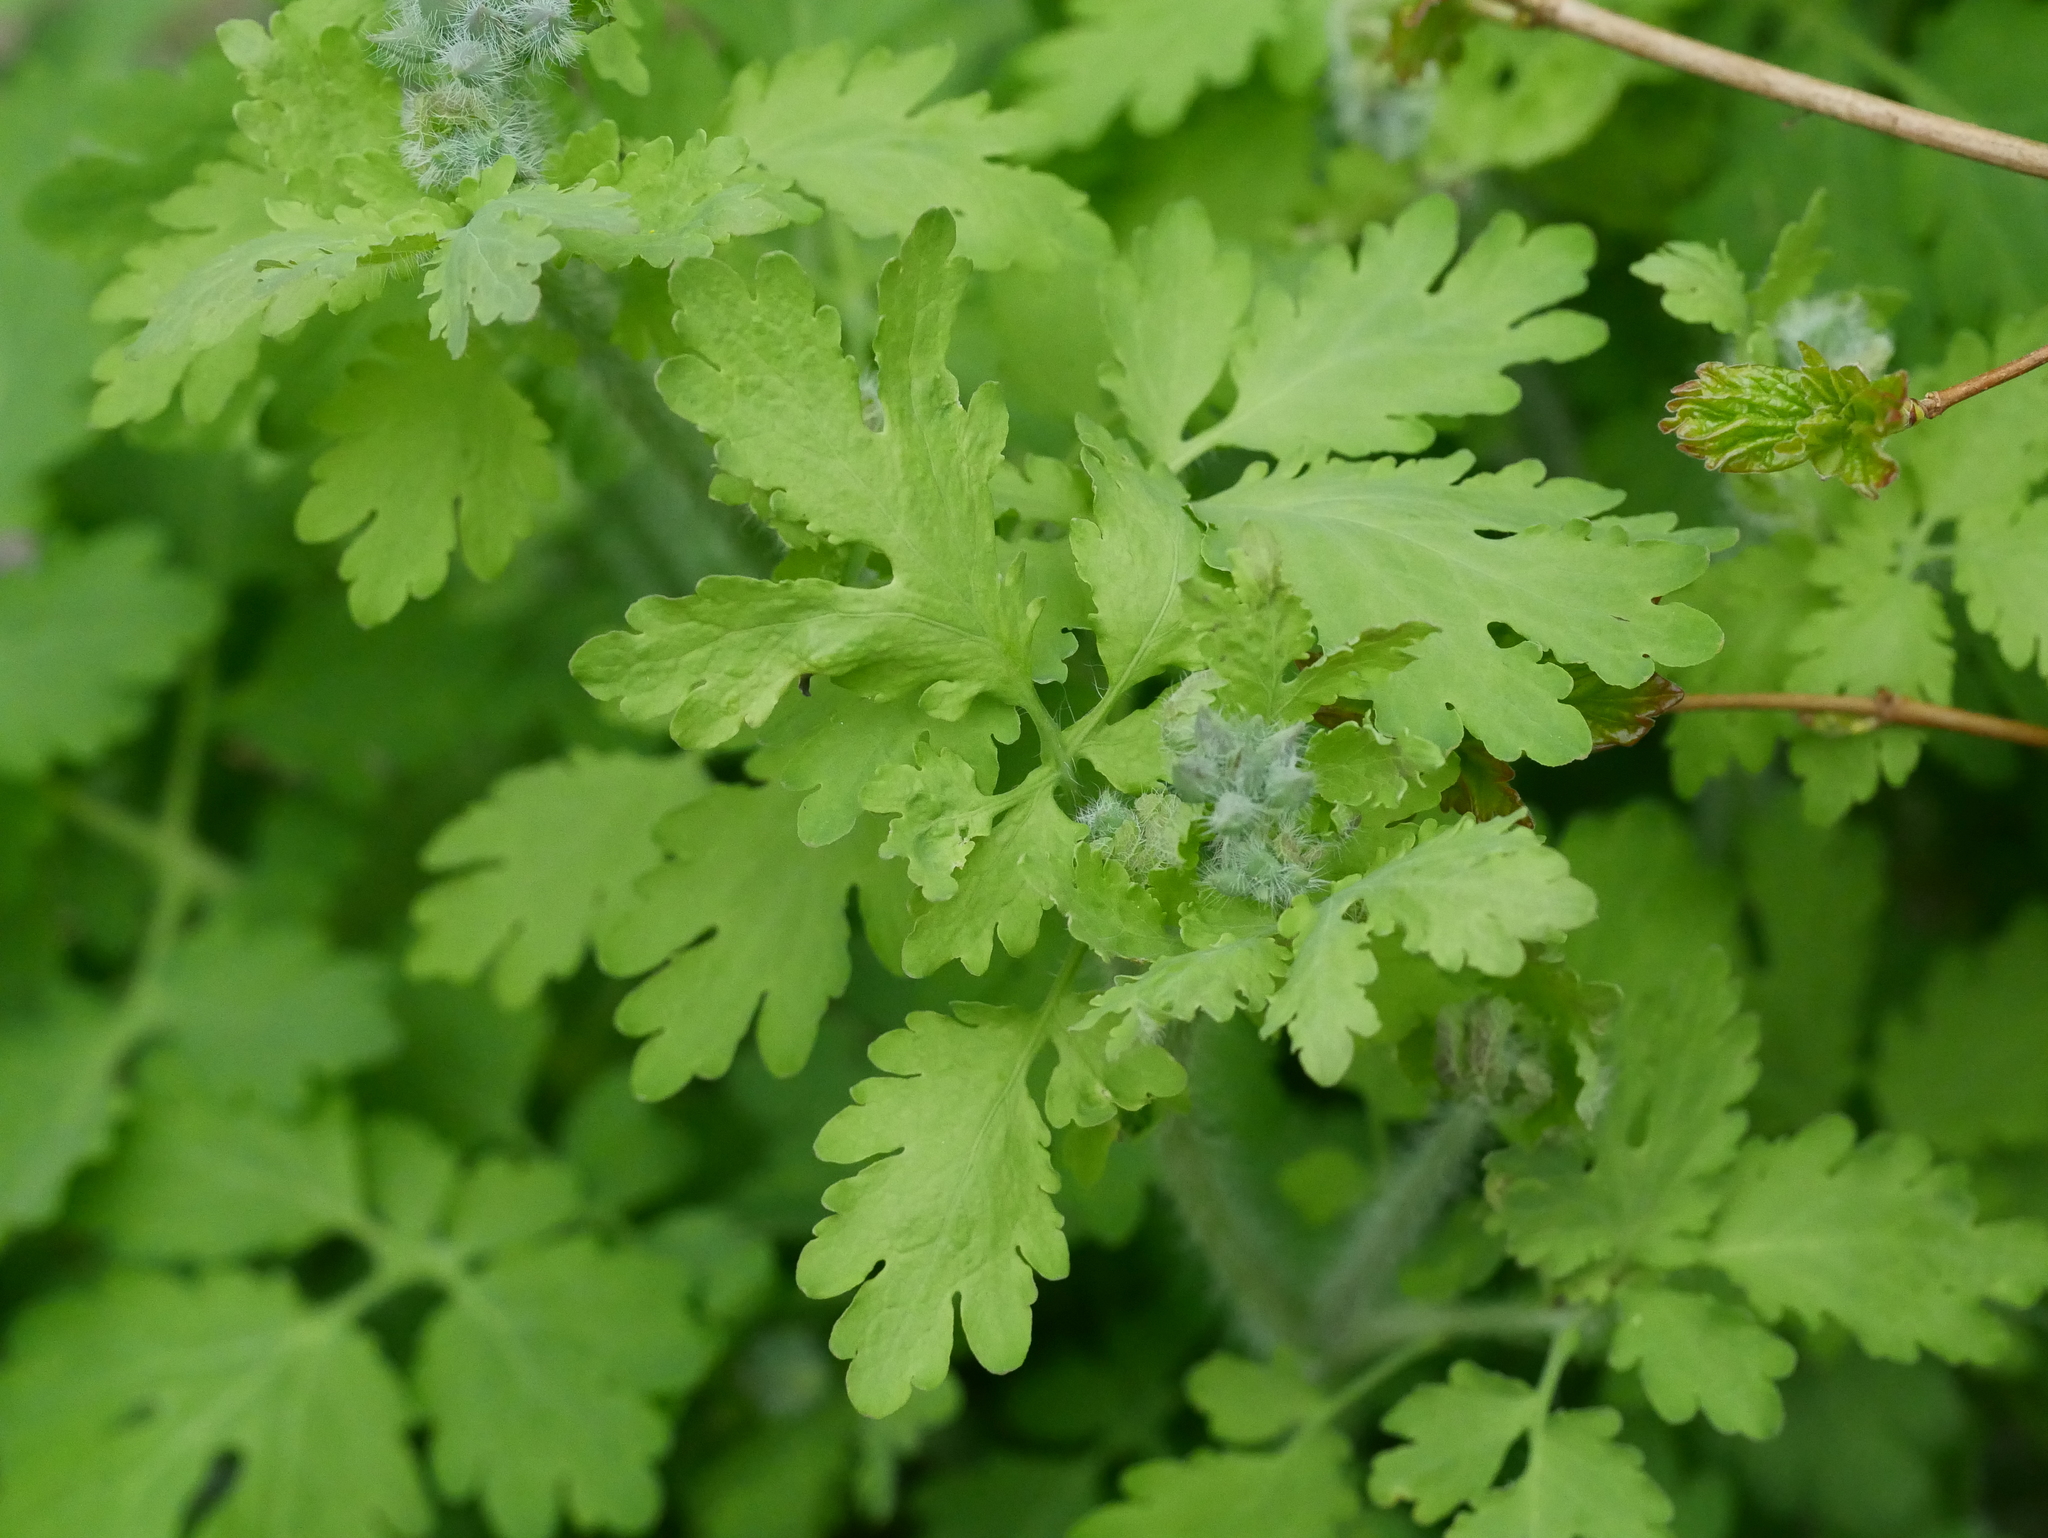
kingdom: Plantae
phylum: Tracheophyta
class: Magnoliopsida
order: Ranunculales
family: Papaveraceae
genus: Chelidonium
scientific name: Chelidonium majus
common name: Greater celandine
